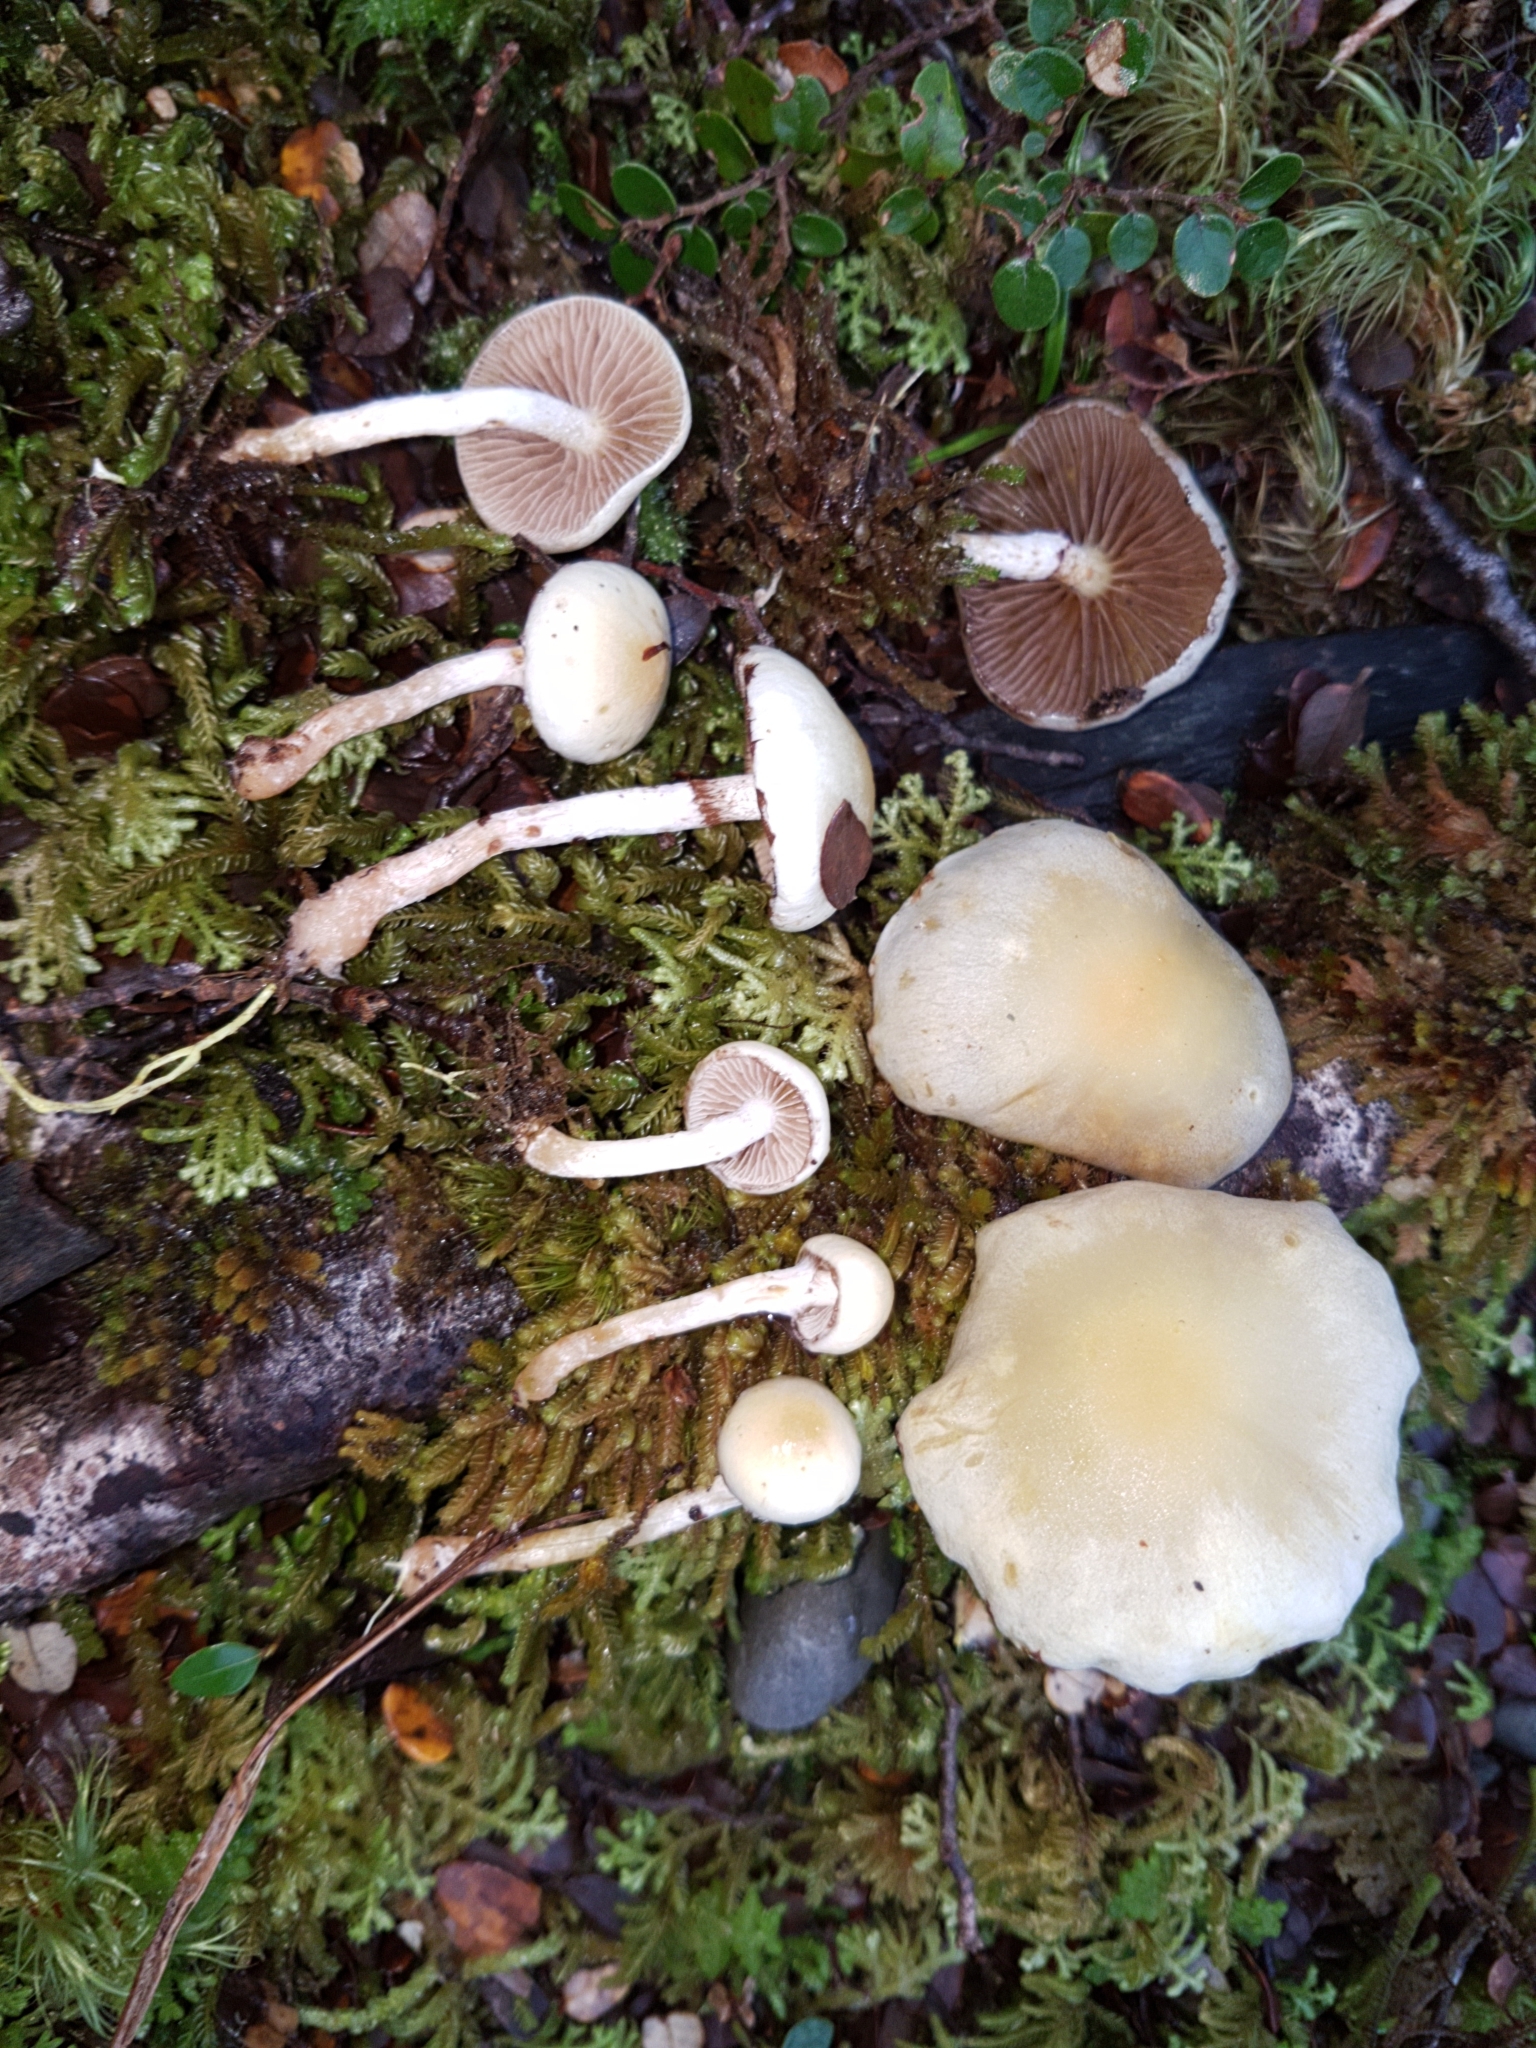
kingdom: Fungi
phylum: Basidiomycota
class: Agaricomycetes
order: Agaricales
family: Strophariaceae
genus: Pholiota
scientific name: Pholiota
